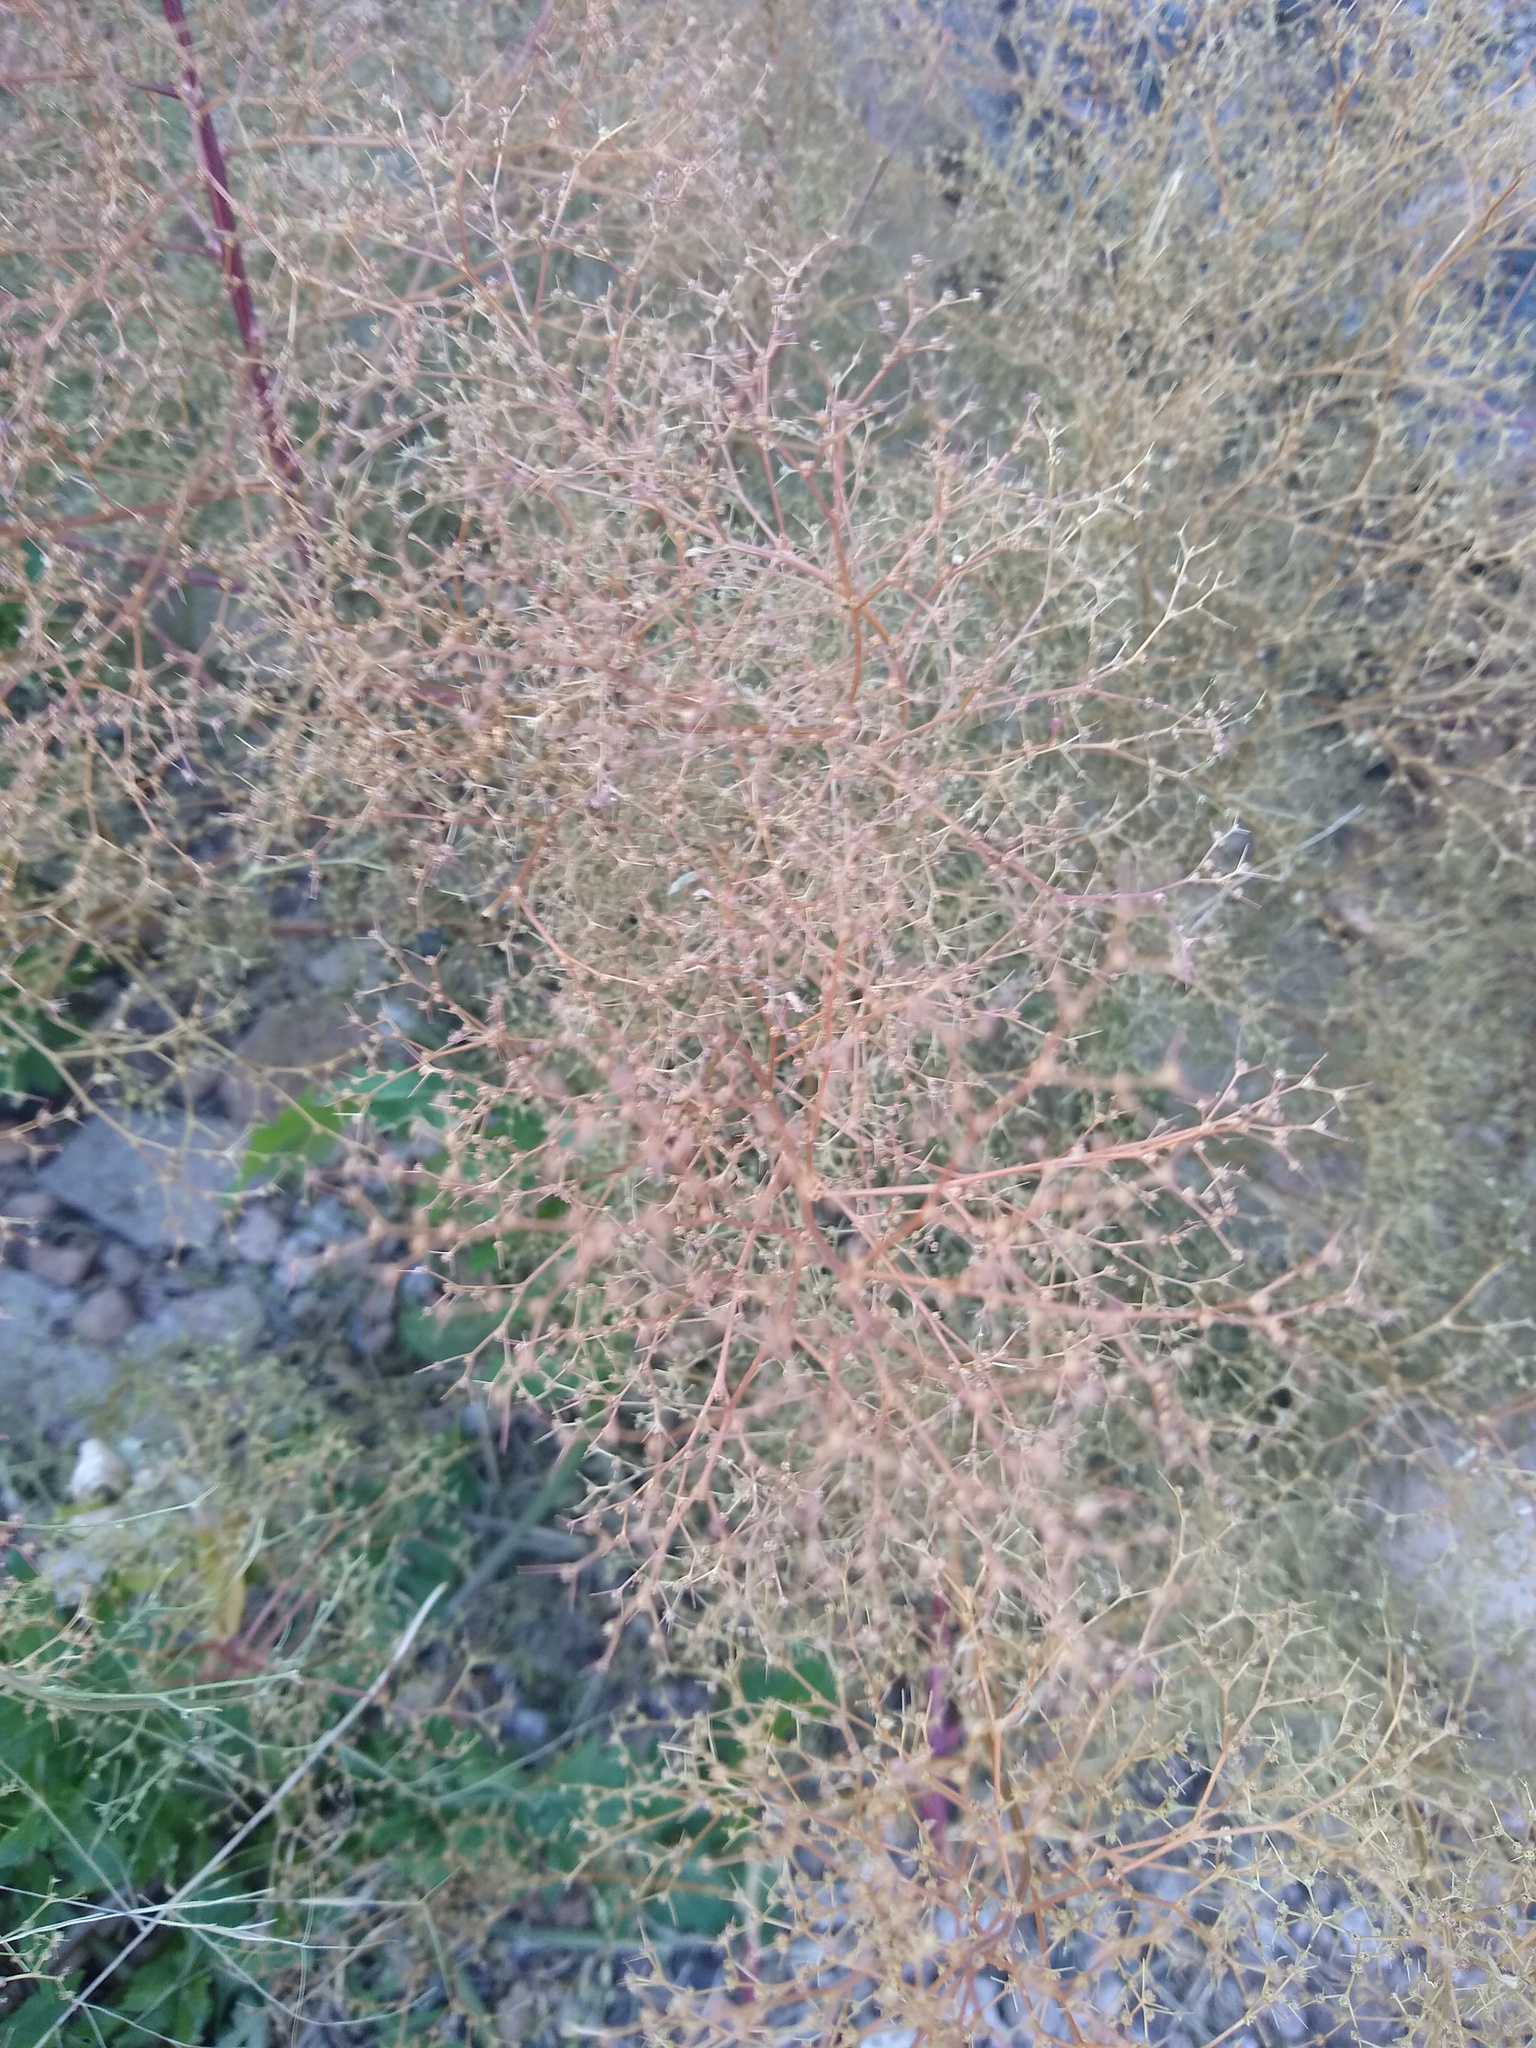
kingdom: Plantae
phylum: Tracheophyta
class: Magnoliopsida
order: Caryophyllales
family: Amaranthaceae
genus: Dysphania
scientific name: Dysphania incisa
